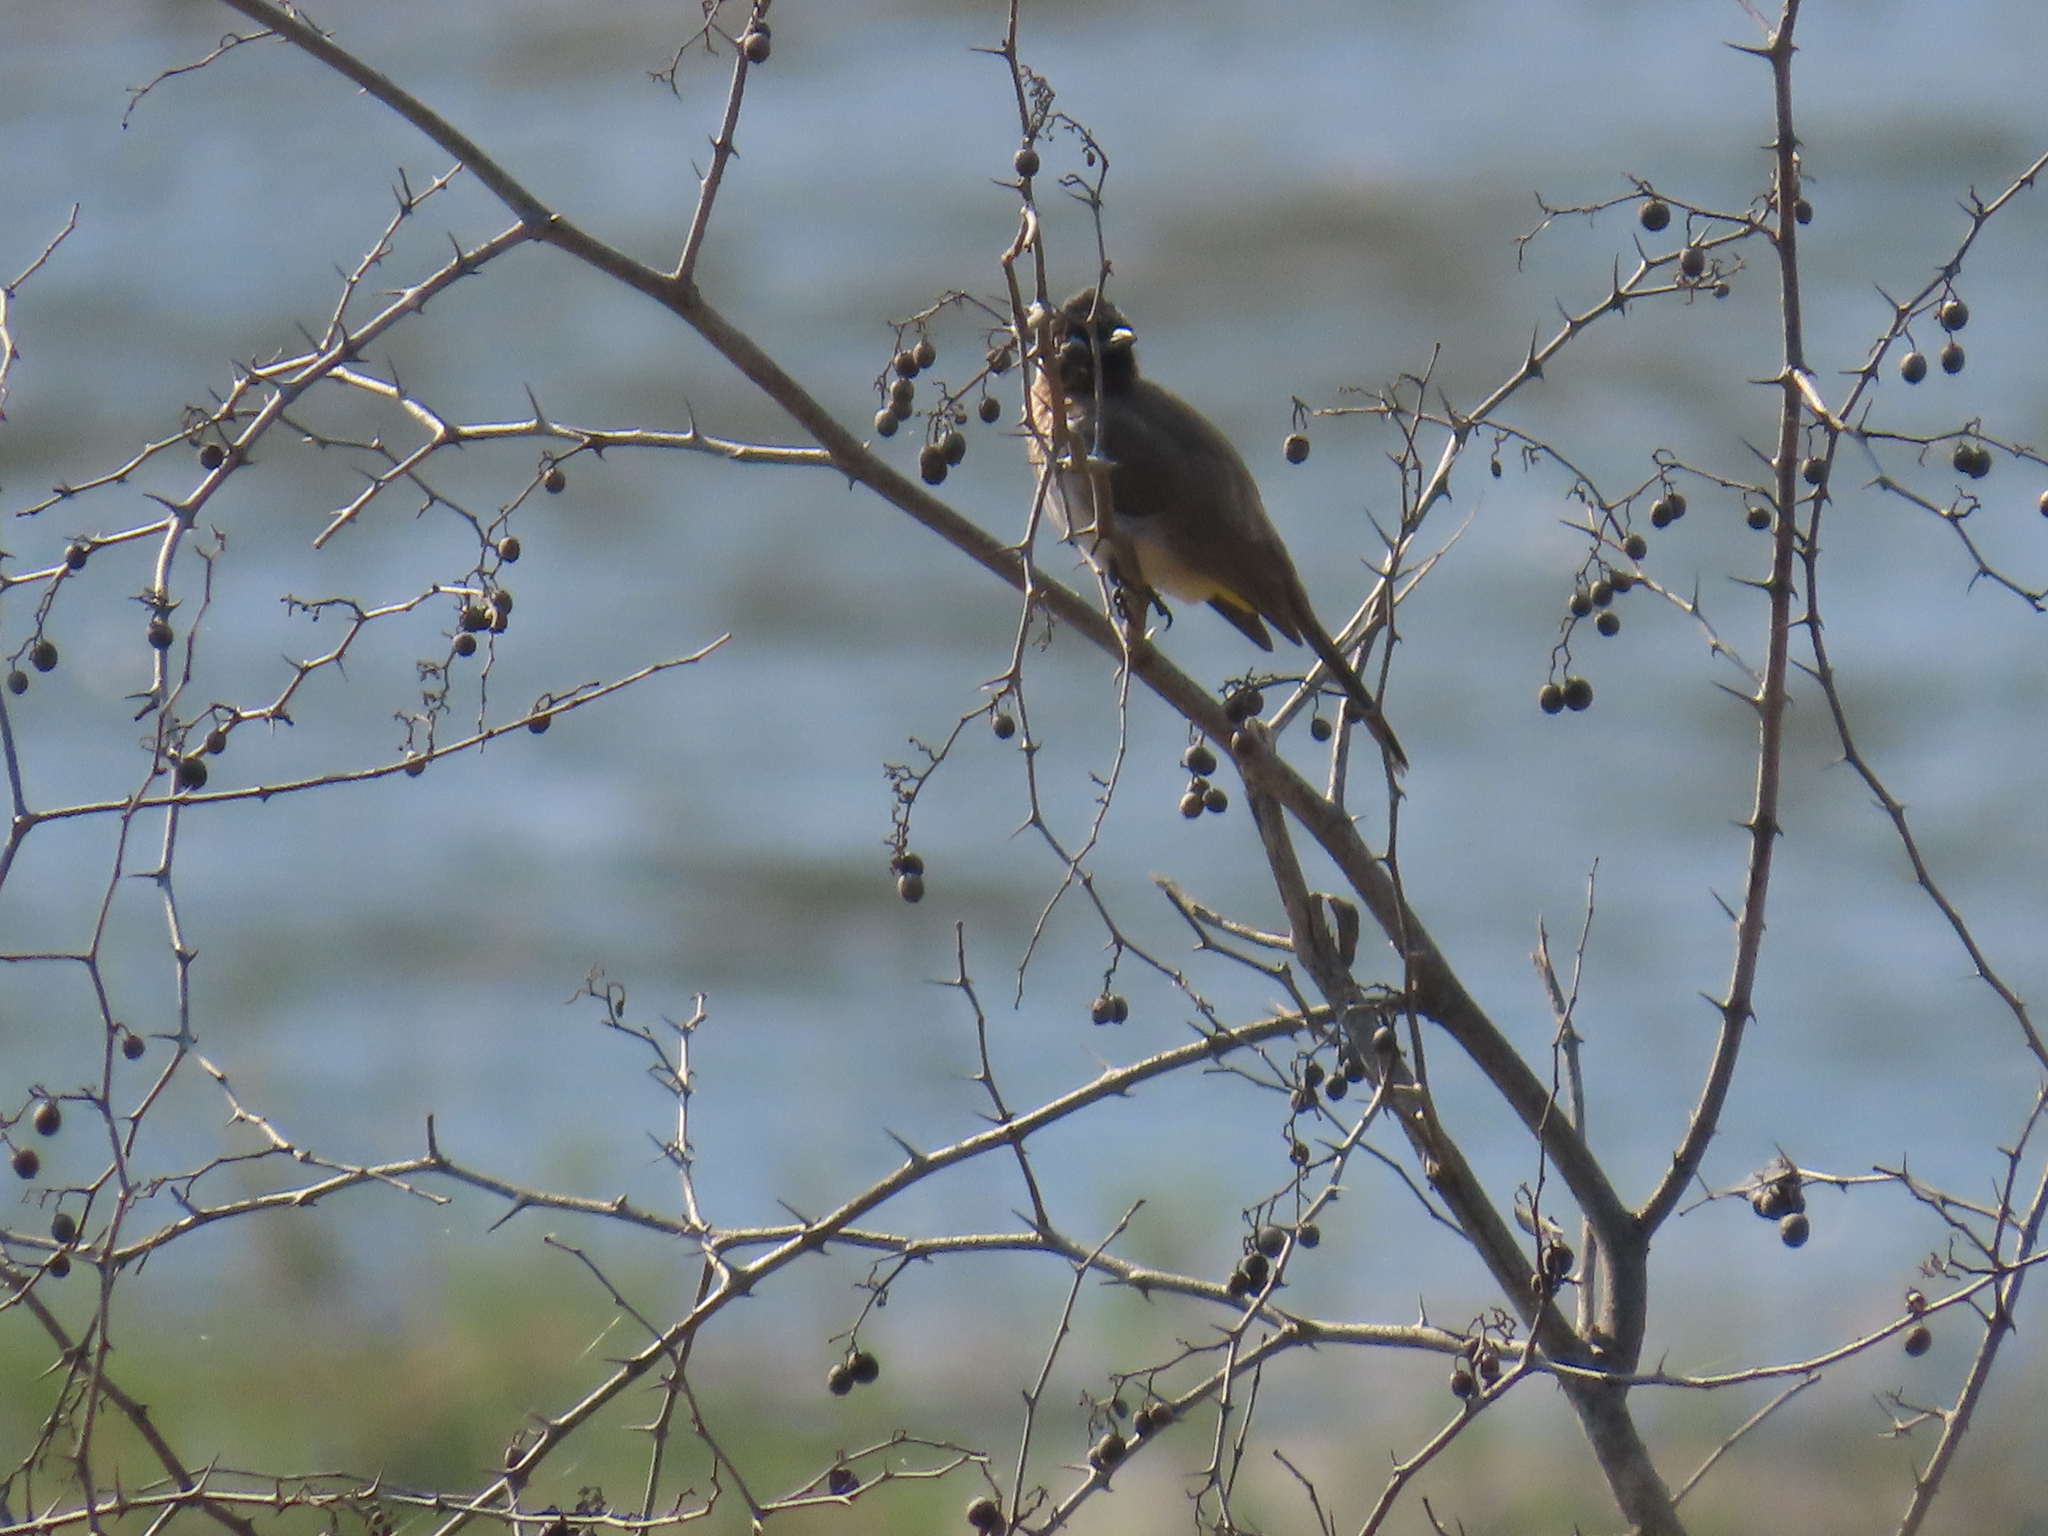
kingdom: Animalia
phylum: Chordata
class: Aves
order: Passeriformes
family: Pycnonotidae
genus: Pycnonotus
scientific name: Pycnonotus barbatus
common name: Common bulbul
